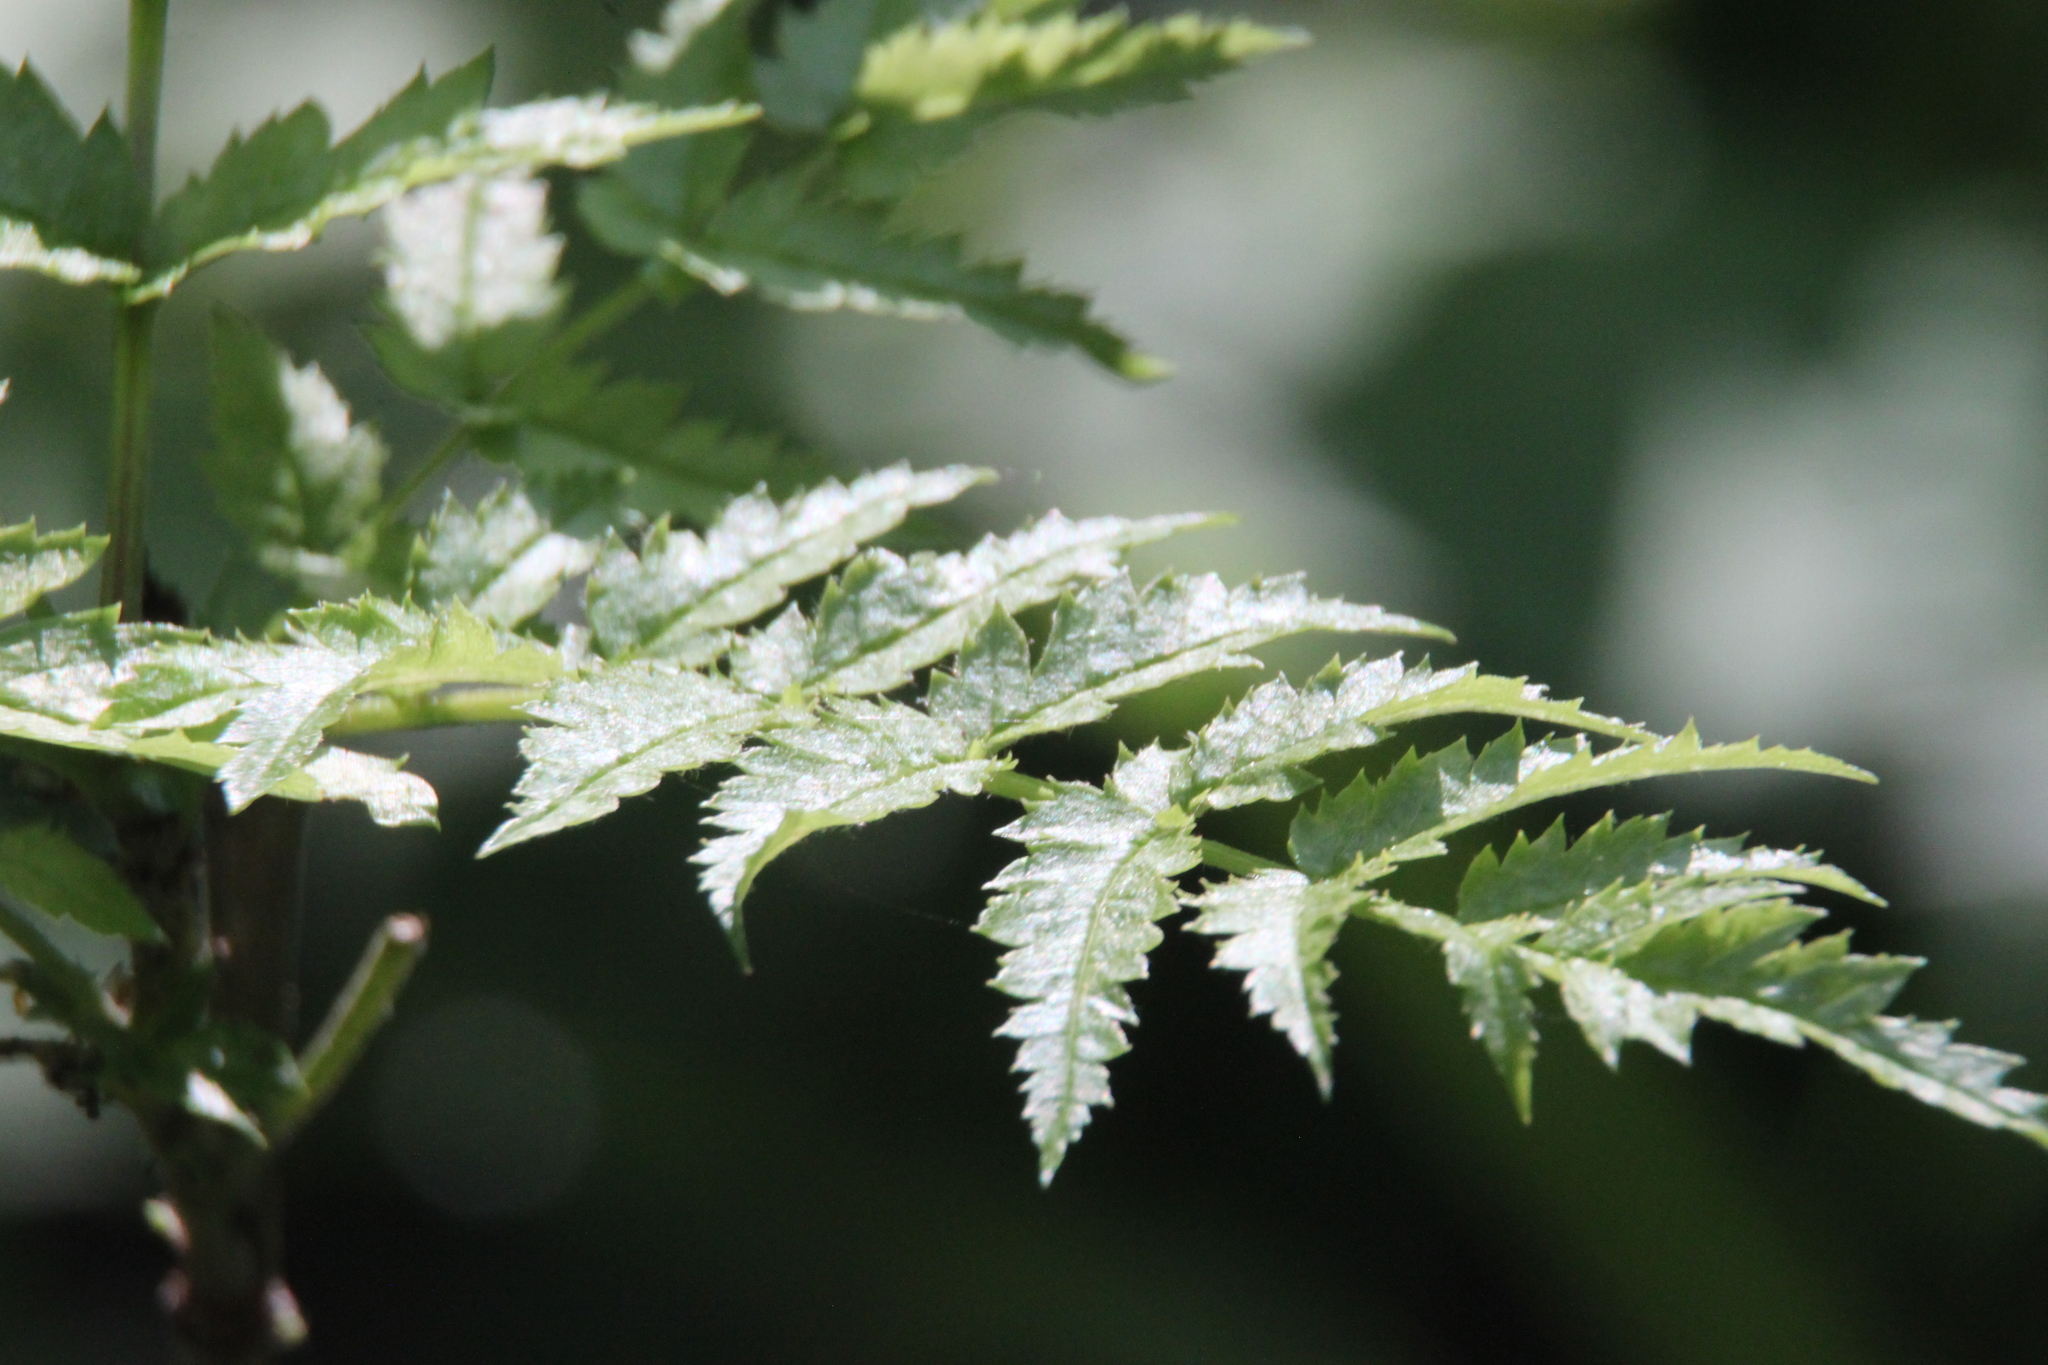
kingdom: Plantae
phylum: Tracheophyta
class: Magnoliopsida
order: Rosales
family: Rosaceae
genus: Sorbus
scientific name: Sorbus aucuparia
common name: Rowan
